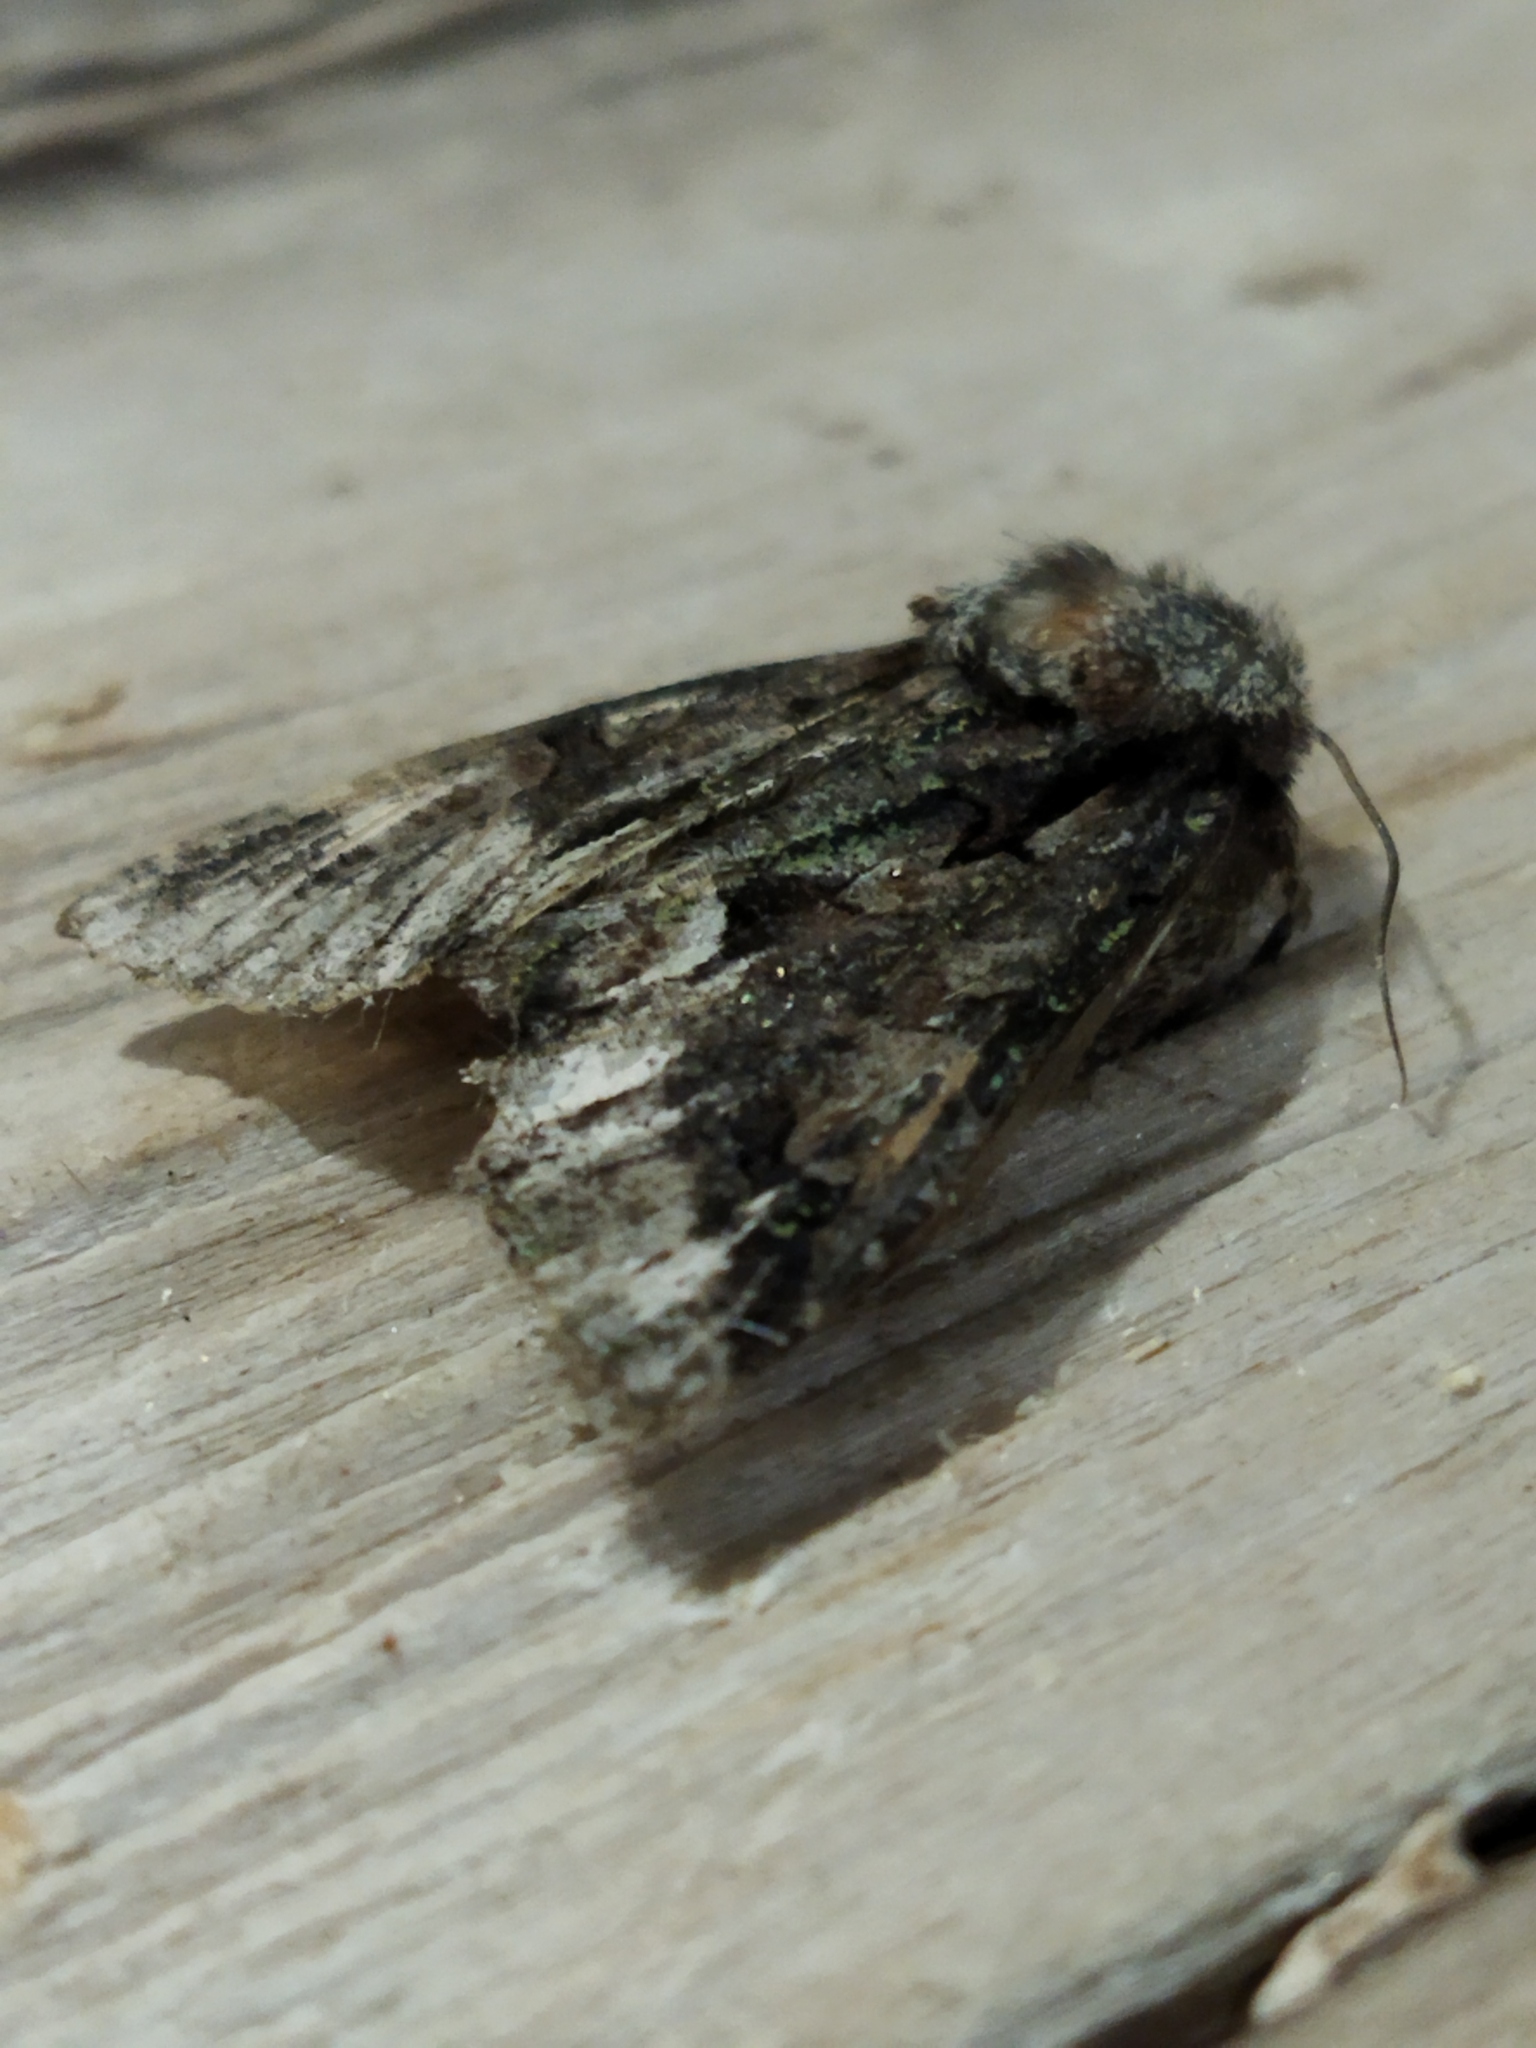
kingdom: Animalia
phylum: Arthropoda
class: Insecta
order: Lepidoptera
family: Noctuidae
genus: Allophyes
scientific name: Allophyes oxyacanthae
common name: Green-brindled crescent
